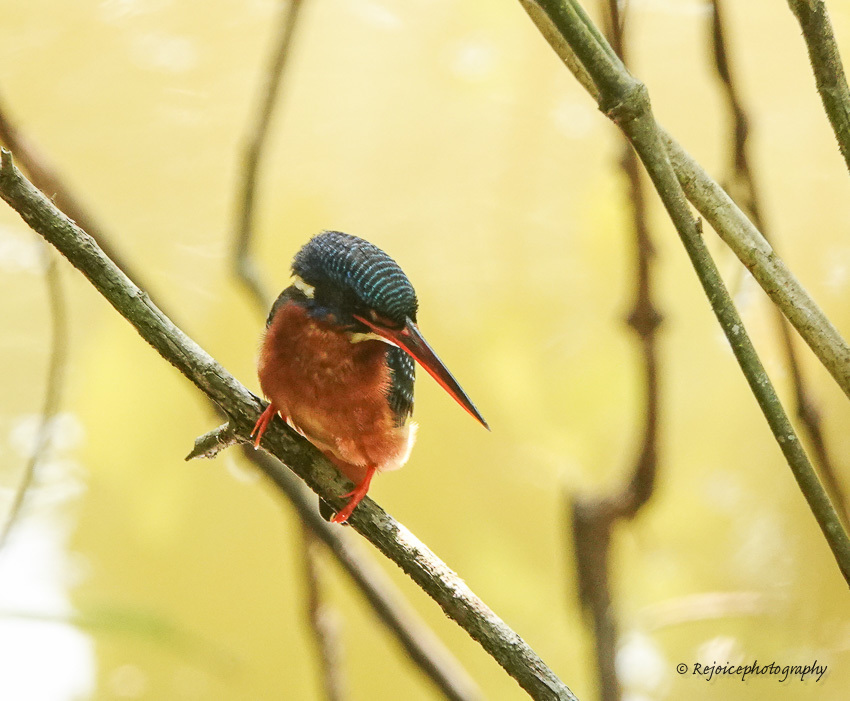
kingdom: Animalia
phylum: Chordata
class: Aves
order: Coraciiformes
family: Alcedinidae
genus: Alcedo
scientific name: Alcedo meninting
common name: Blue-eared kingfisher
